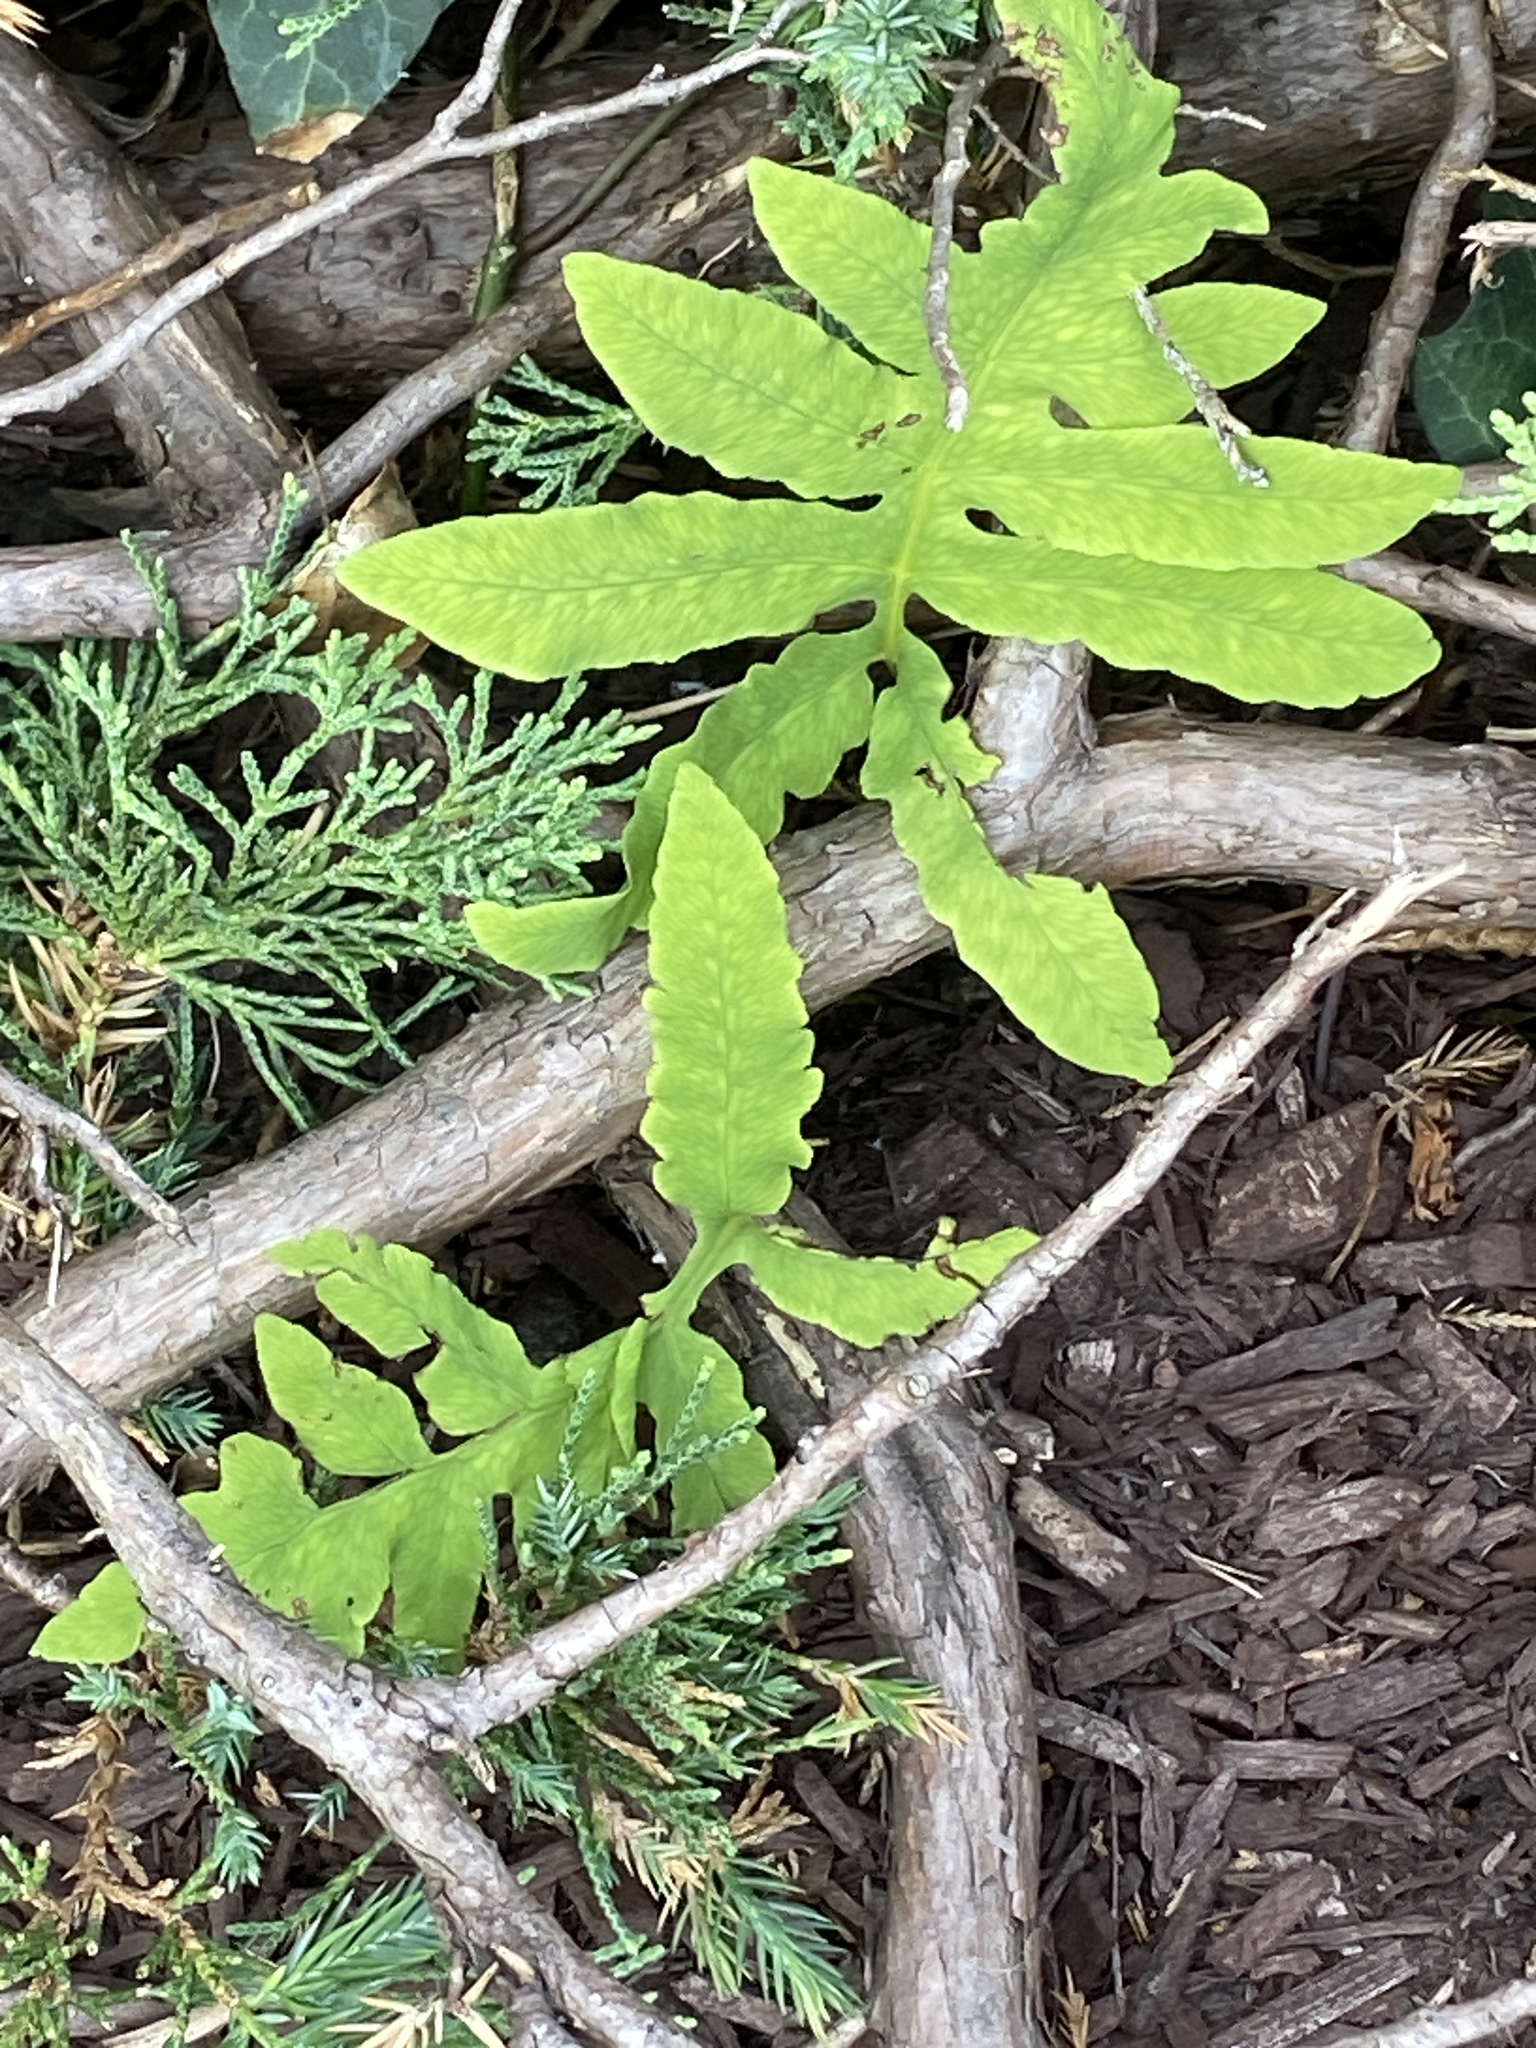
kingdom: Plantae
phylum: Tracheophyta
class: Polypodiopsida
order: Polypodiales
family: Onocleaceae
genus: Onoclea
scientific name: Onoclea sensibilis
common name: Sensitive fern
